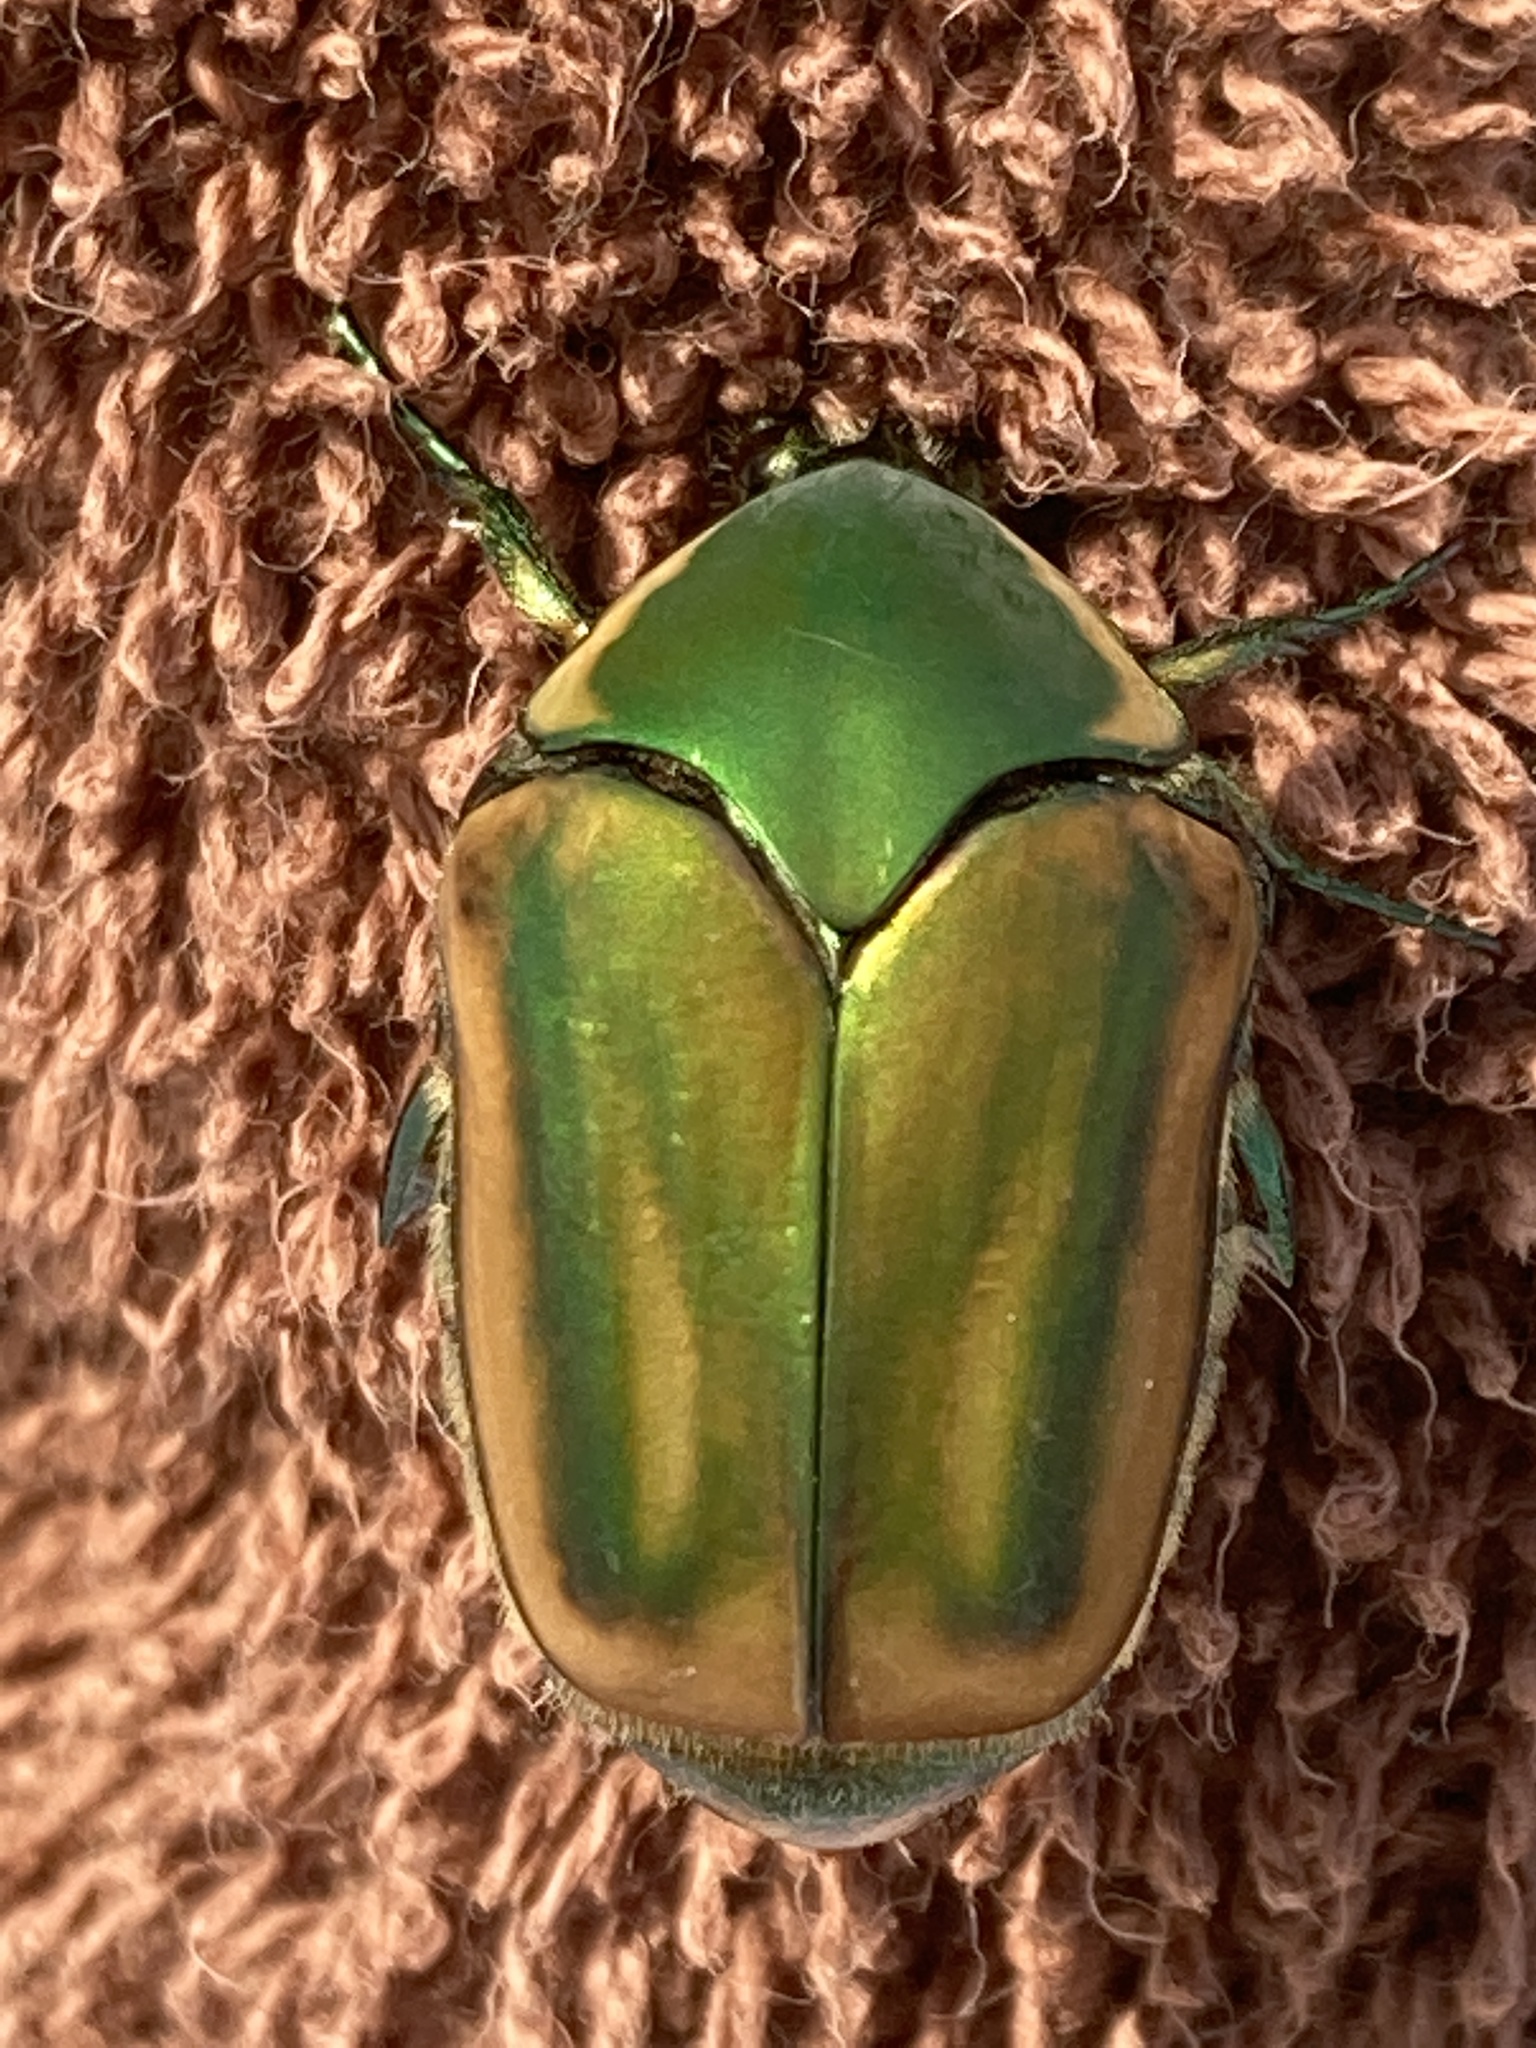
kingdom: Animalia
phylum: Arthropoda
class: Insecta
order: Coleoptera
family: Scarabaeidae
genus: Cotinis
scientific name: Cotinis nitida
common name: Common green june beetle
